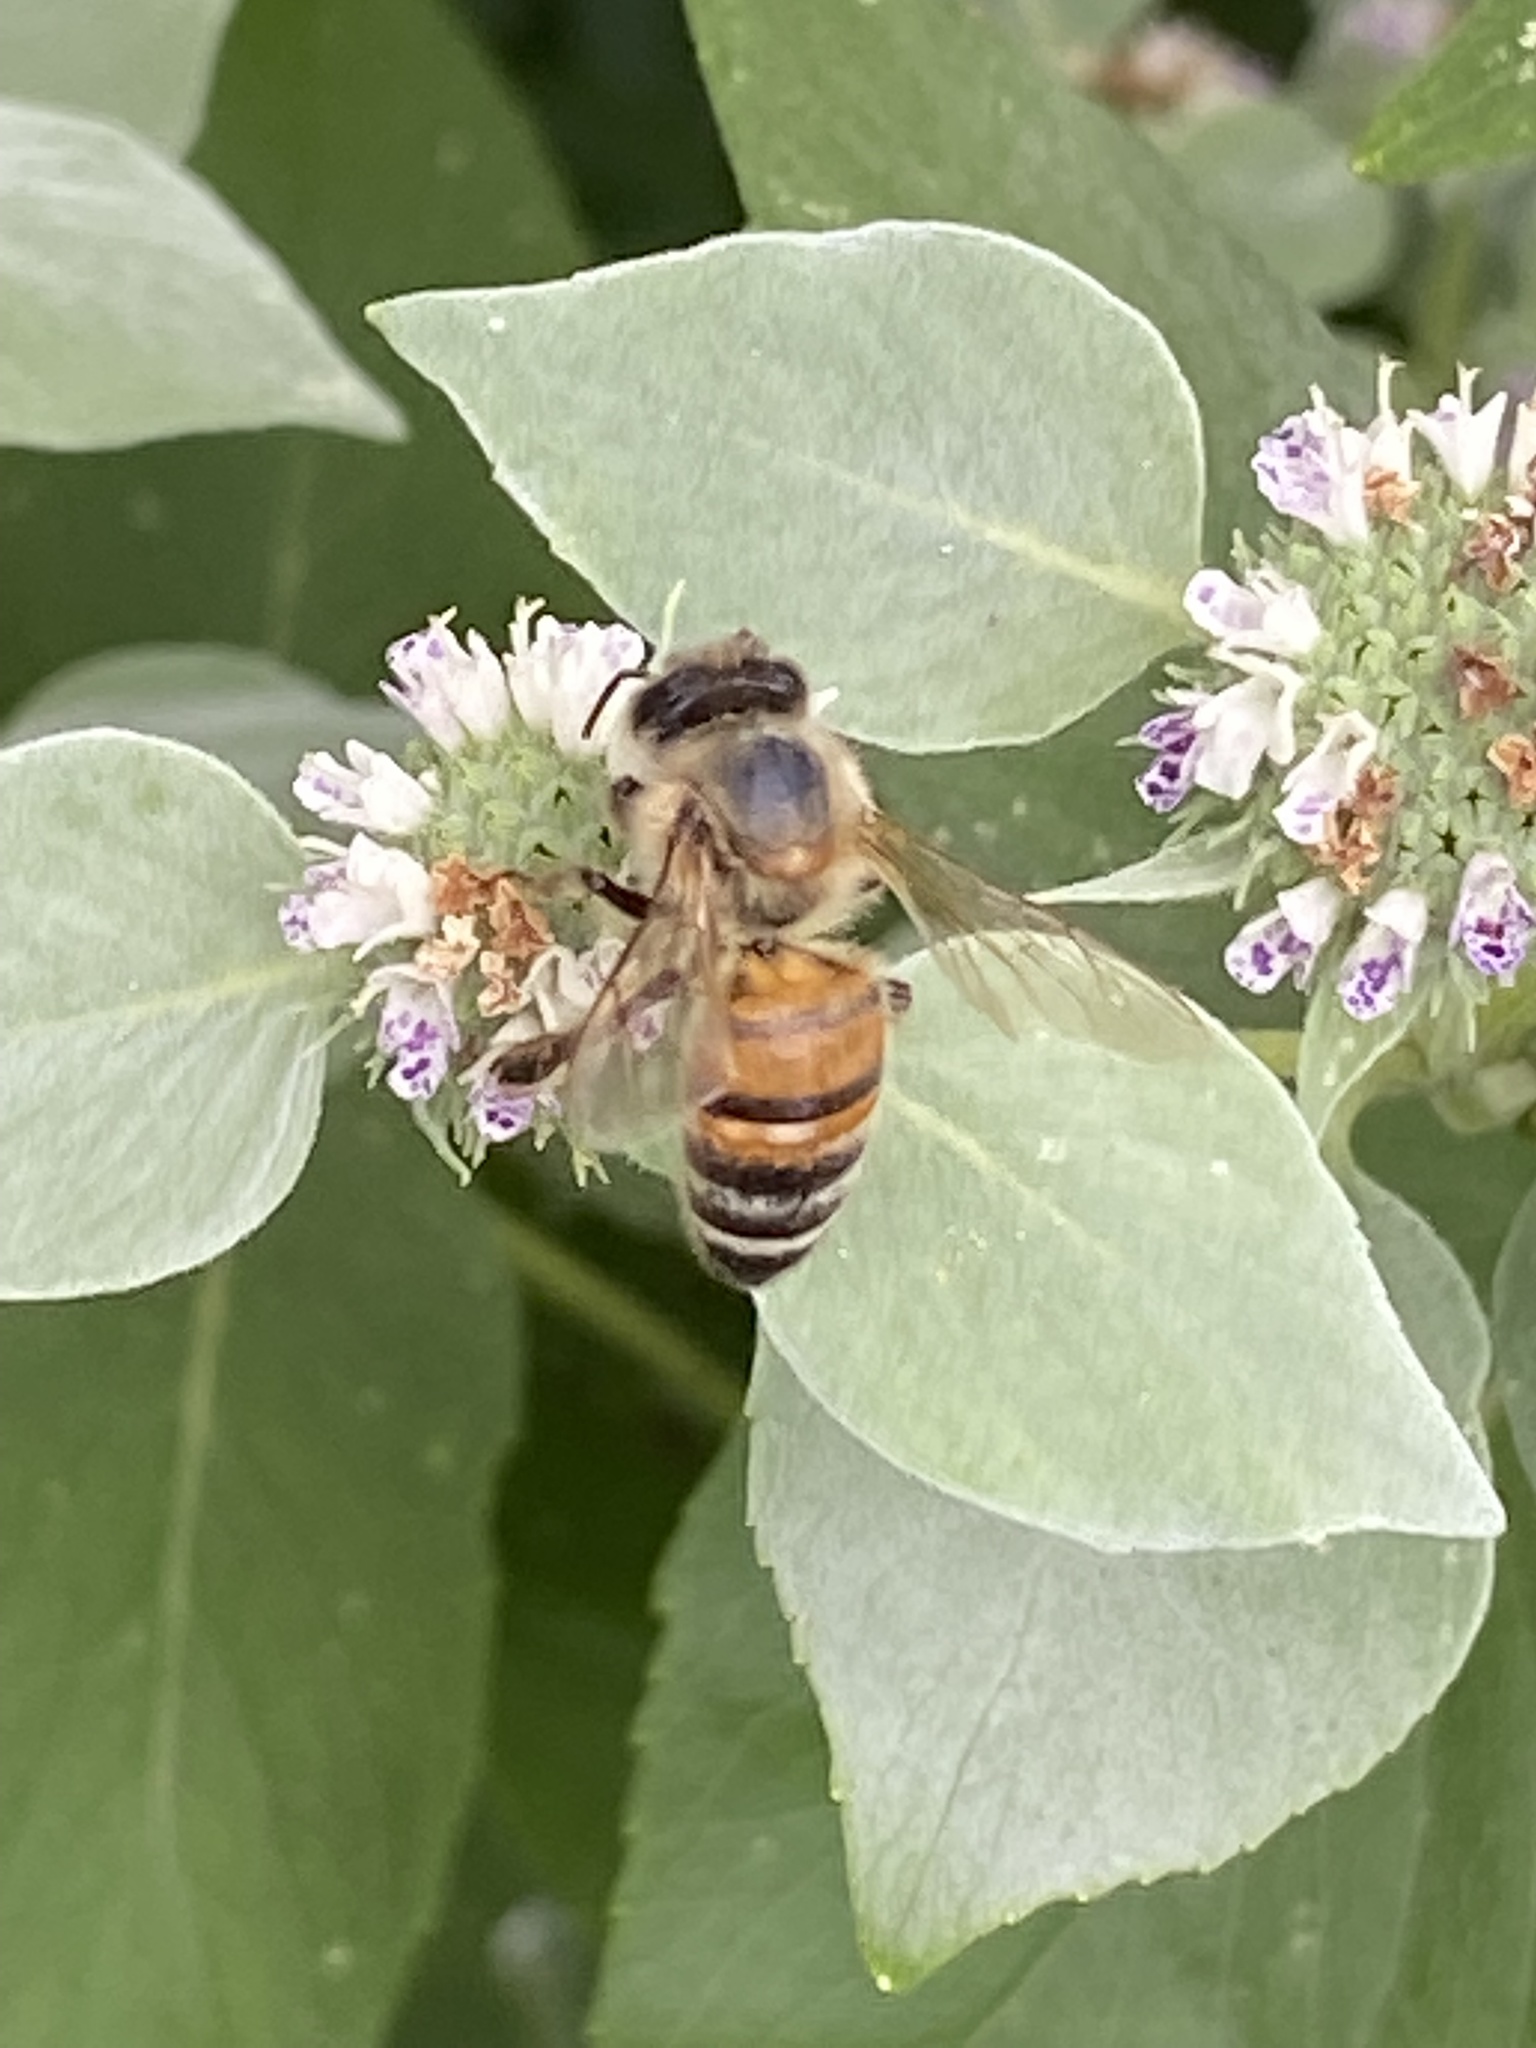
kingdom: Animalia
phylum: Arthropoda
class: Insecta
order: Hymenoptera
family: Apidae
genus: Apis
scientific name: Apis mellifera
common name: Honey bee
